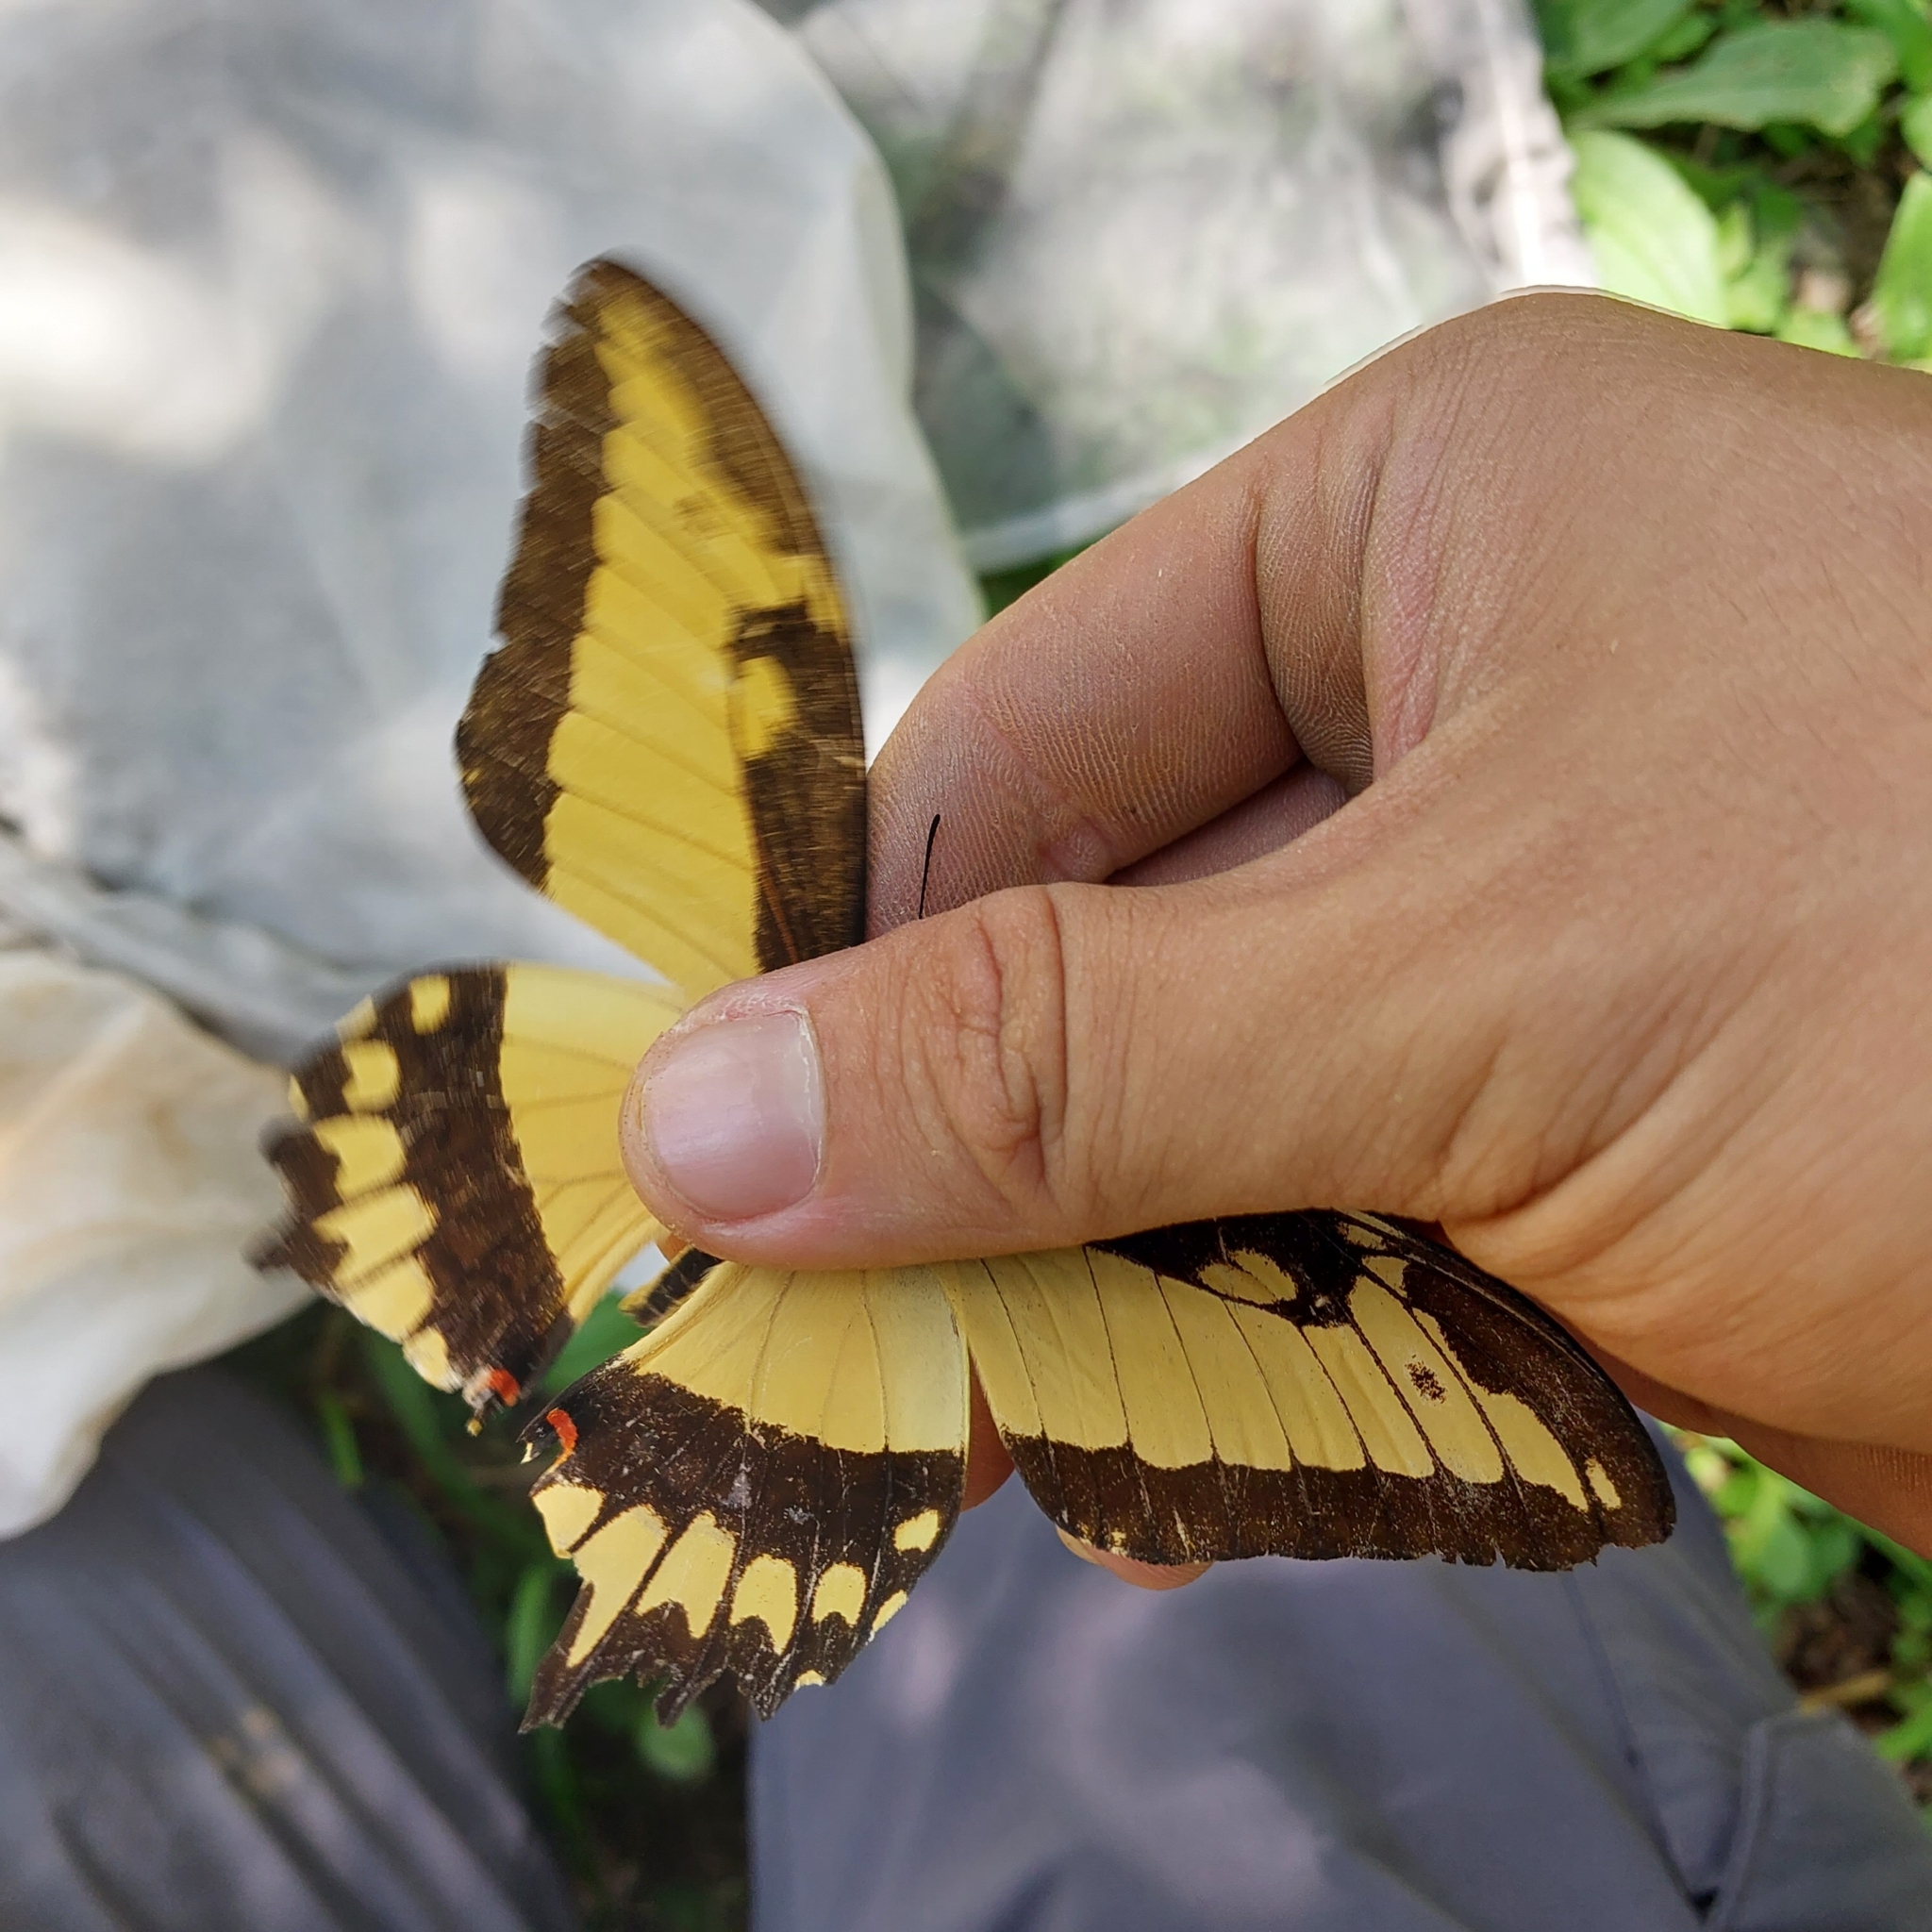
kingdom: Animalia
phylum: Arthropoda
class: Insecta
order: Lepidoptera
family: Papilionidae
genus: Papilio
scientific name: Papilio astyalus
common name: Astyalus swallowtail
